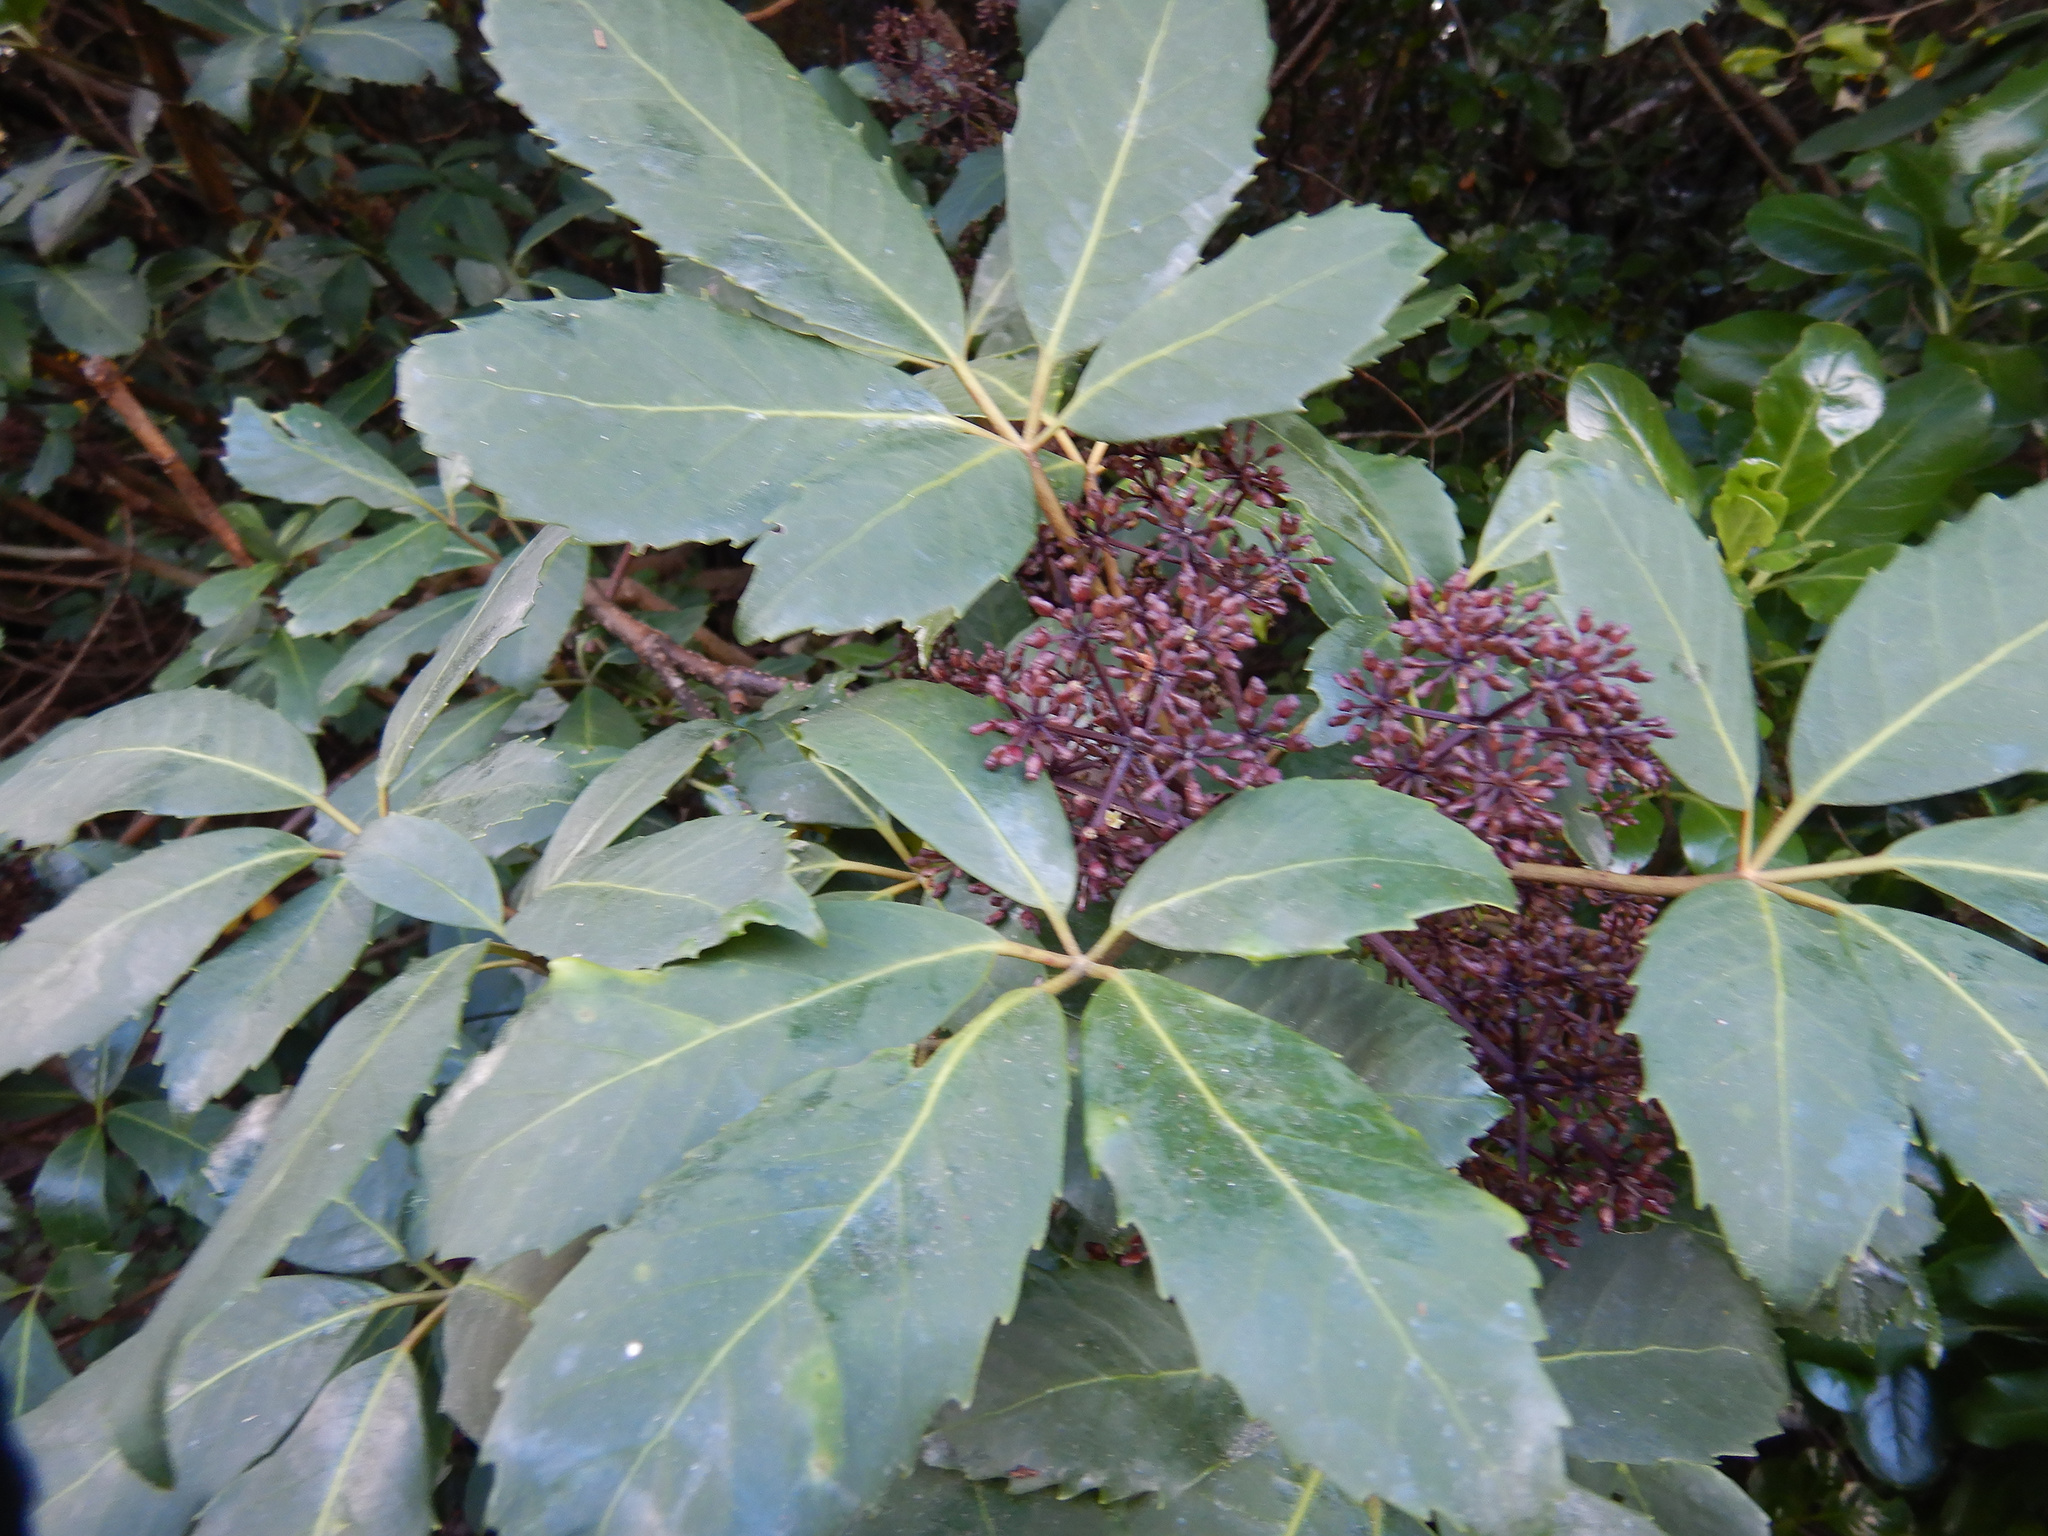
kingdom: Plantae
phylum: Tracheophyta
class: Magnoliopsida
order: Apiales
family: Araliaceae
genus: Neopanax
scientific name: Neopanax arboreus
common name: Five-fingers
